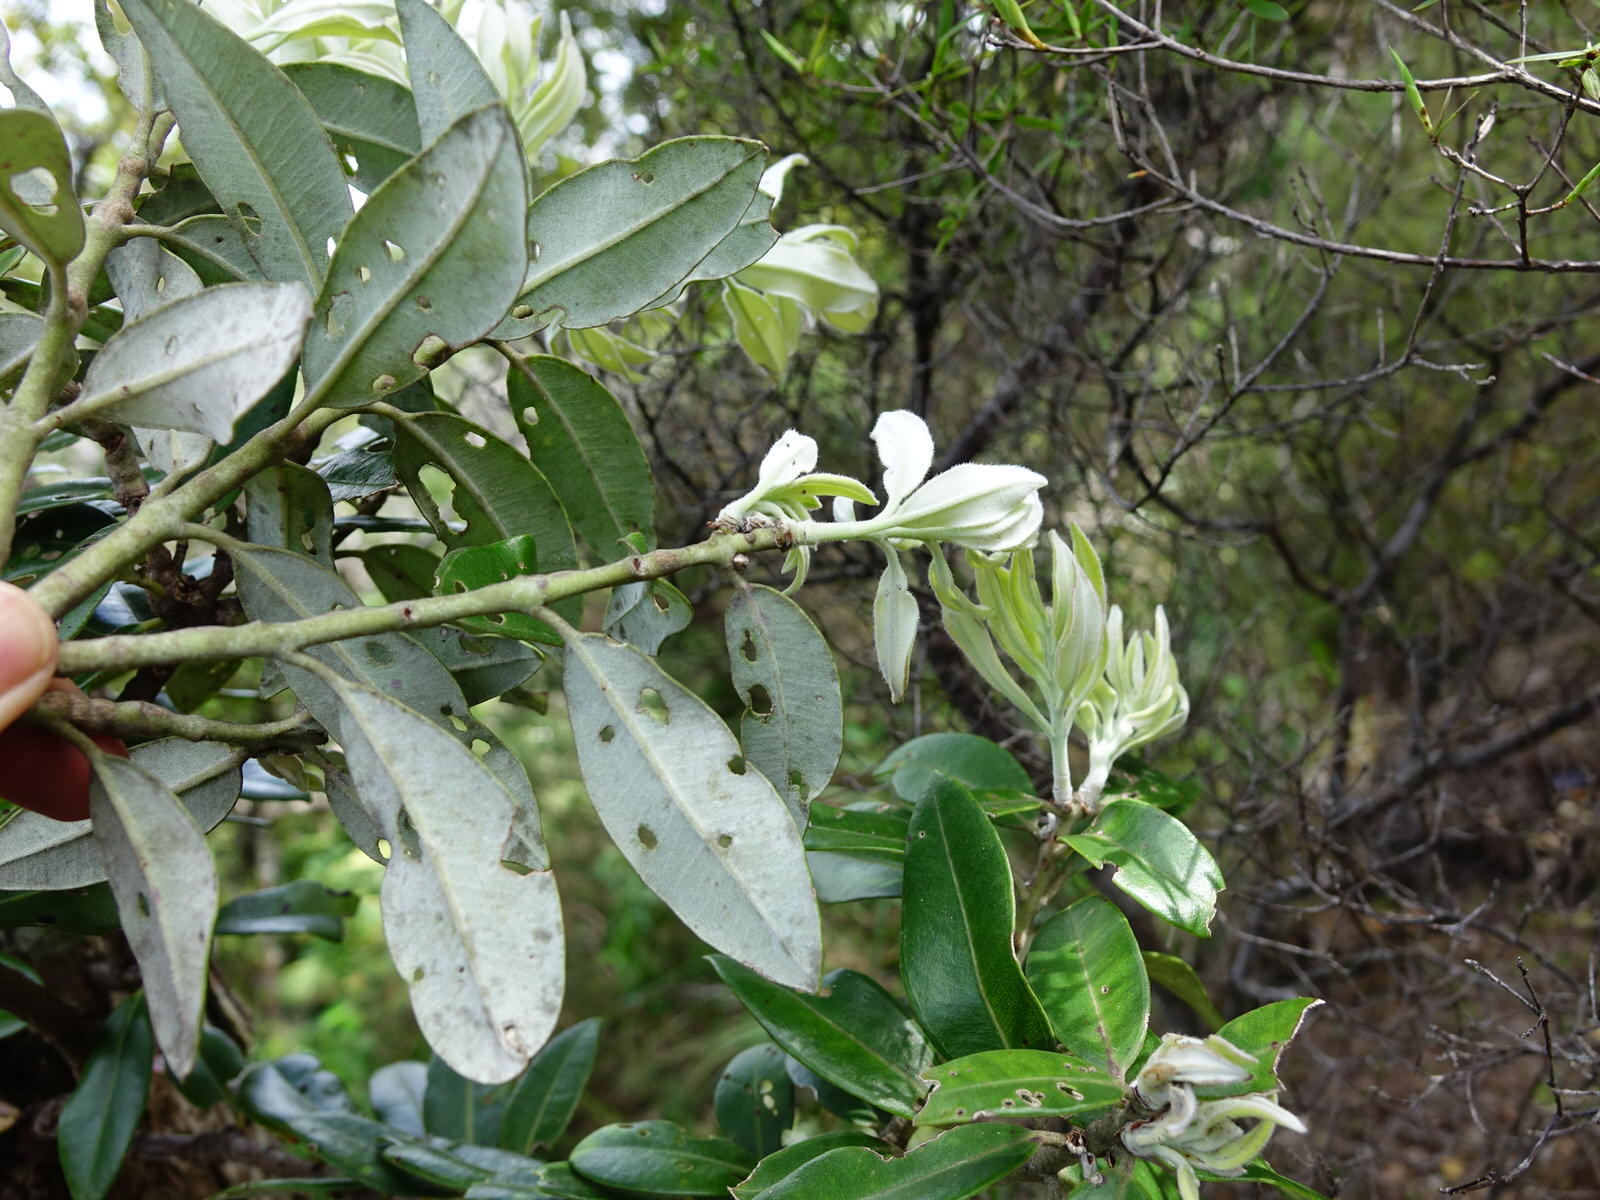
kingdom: Plantae
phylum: Tracheophyta
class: Magnoliopsida
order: Myrtales
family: Myrtaceae
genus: Metrosideros
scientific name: Metrosideros excelsa
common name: New zealand christmastree
